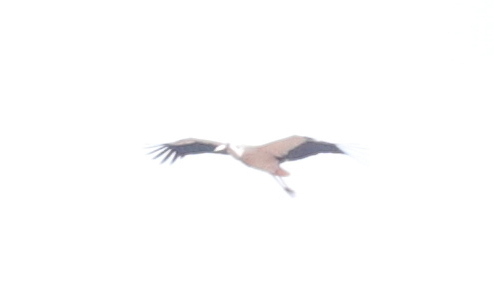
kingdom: Animalia
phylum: Chordata
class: Aves
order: Ciconiiformes
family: Ciconiidae
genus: Ciconia
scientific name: Ciconia ciconia
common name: White stork
